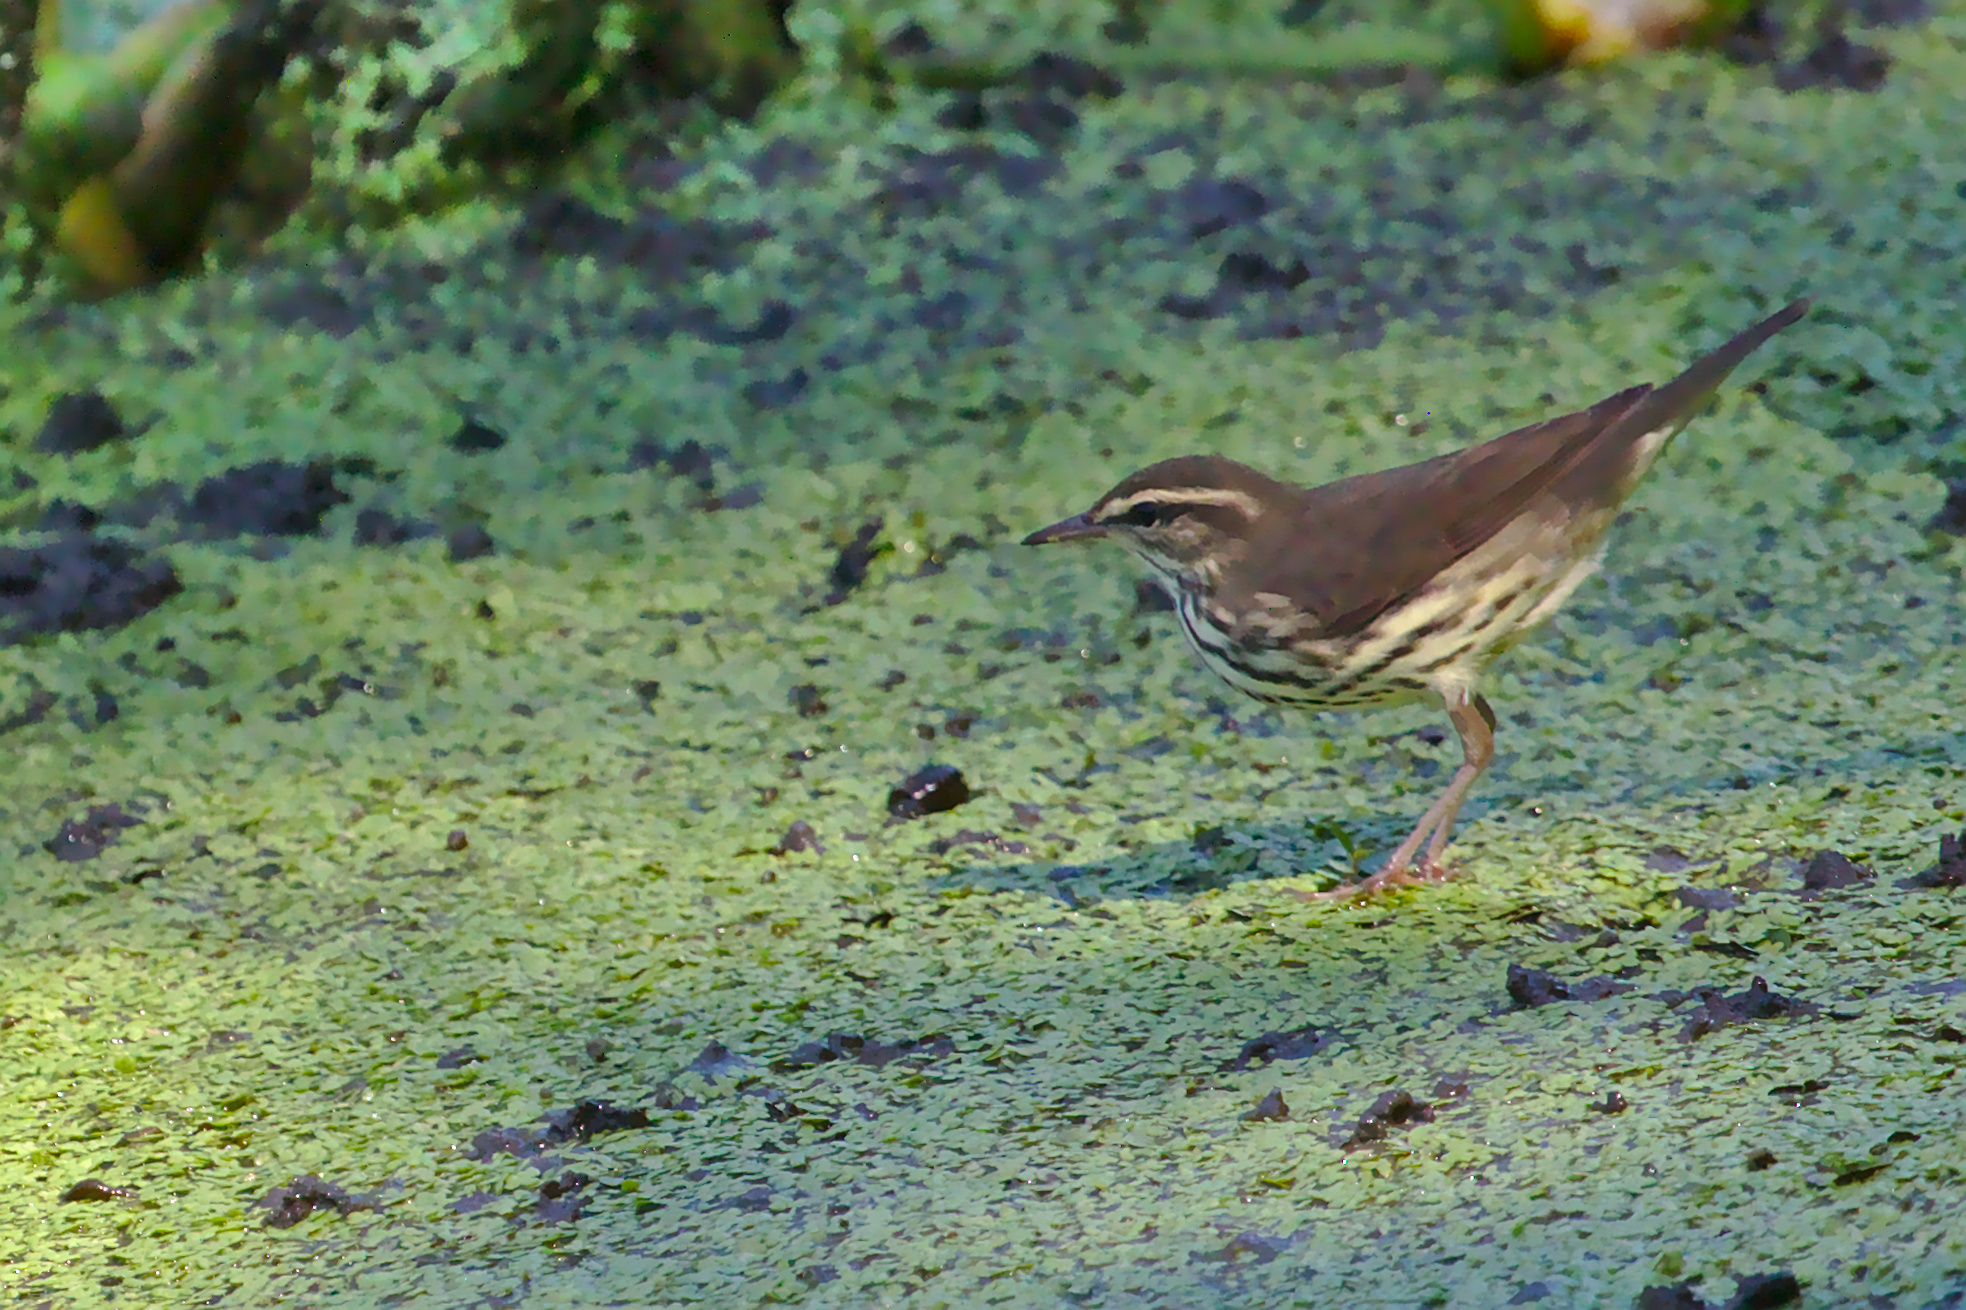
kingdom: Animalia
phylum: Chordata
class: Aves
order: Passeriformes
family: Parulidae
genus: Parkesia
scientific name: Parkesia noveboracensis
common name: Northern waterthrush
